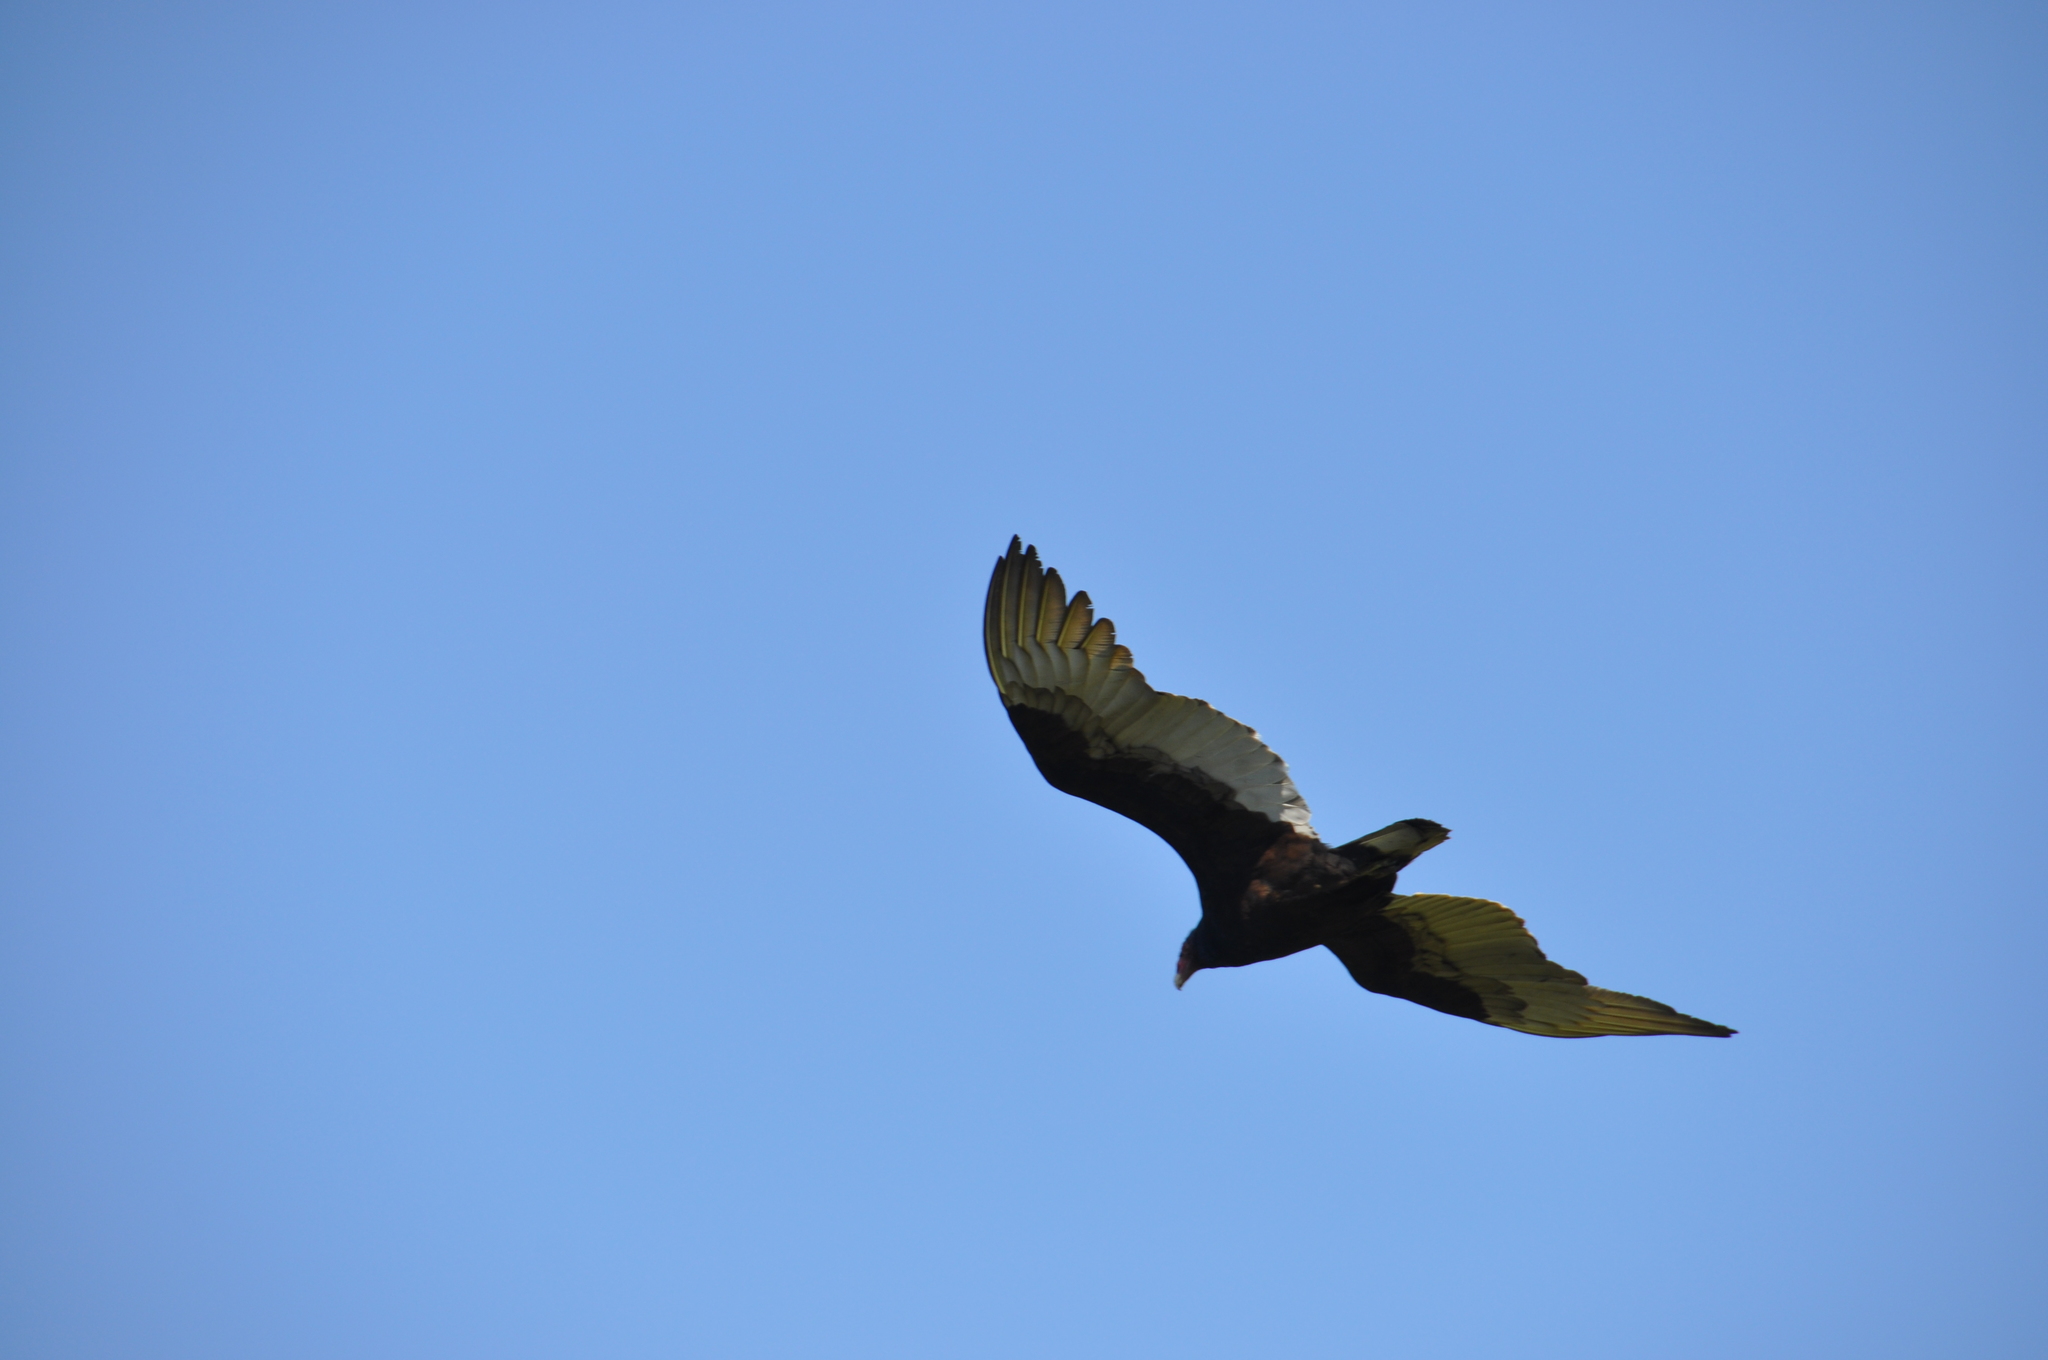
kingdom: Animalia
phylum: Chordata
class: Aves
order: Accipitriformes
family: Cathartidae
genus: Cathartes
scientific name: Cathartes aura
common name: Turkey vulture
